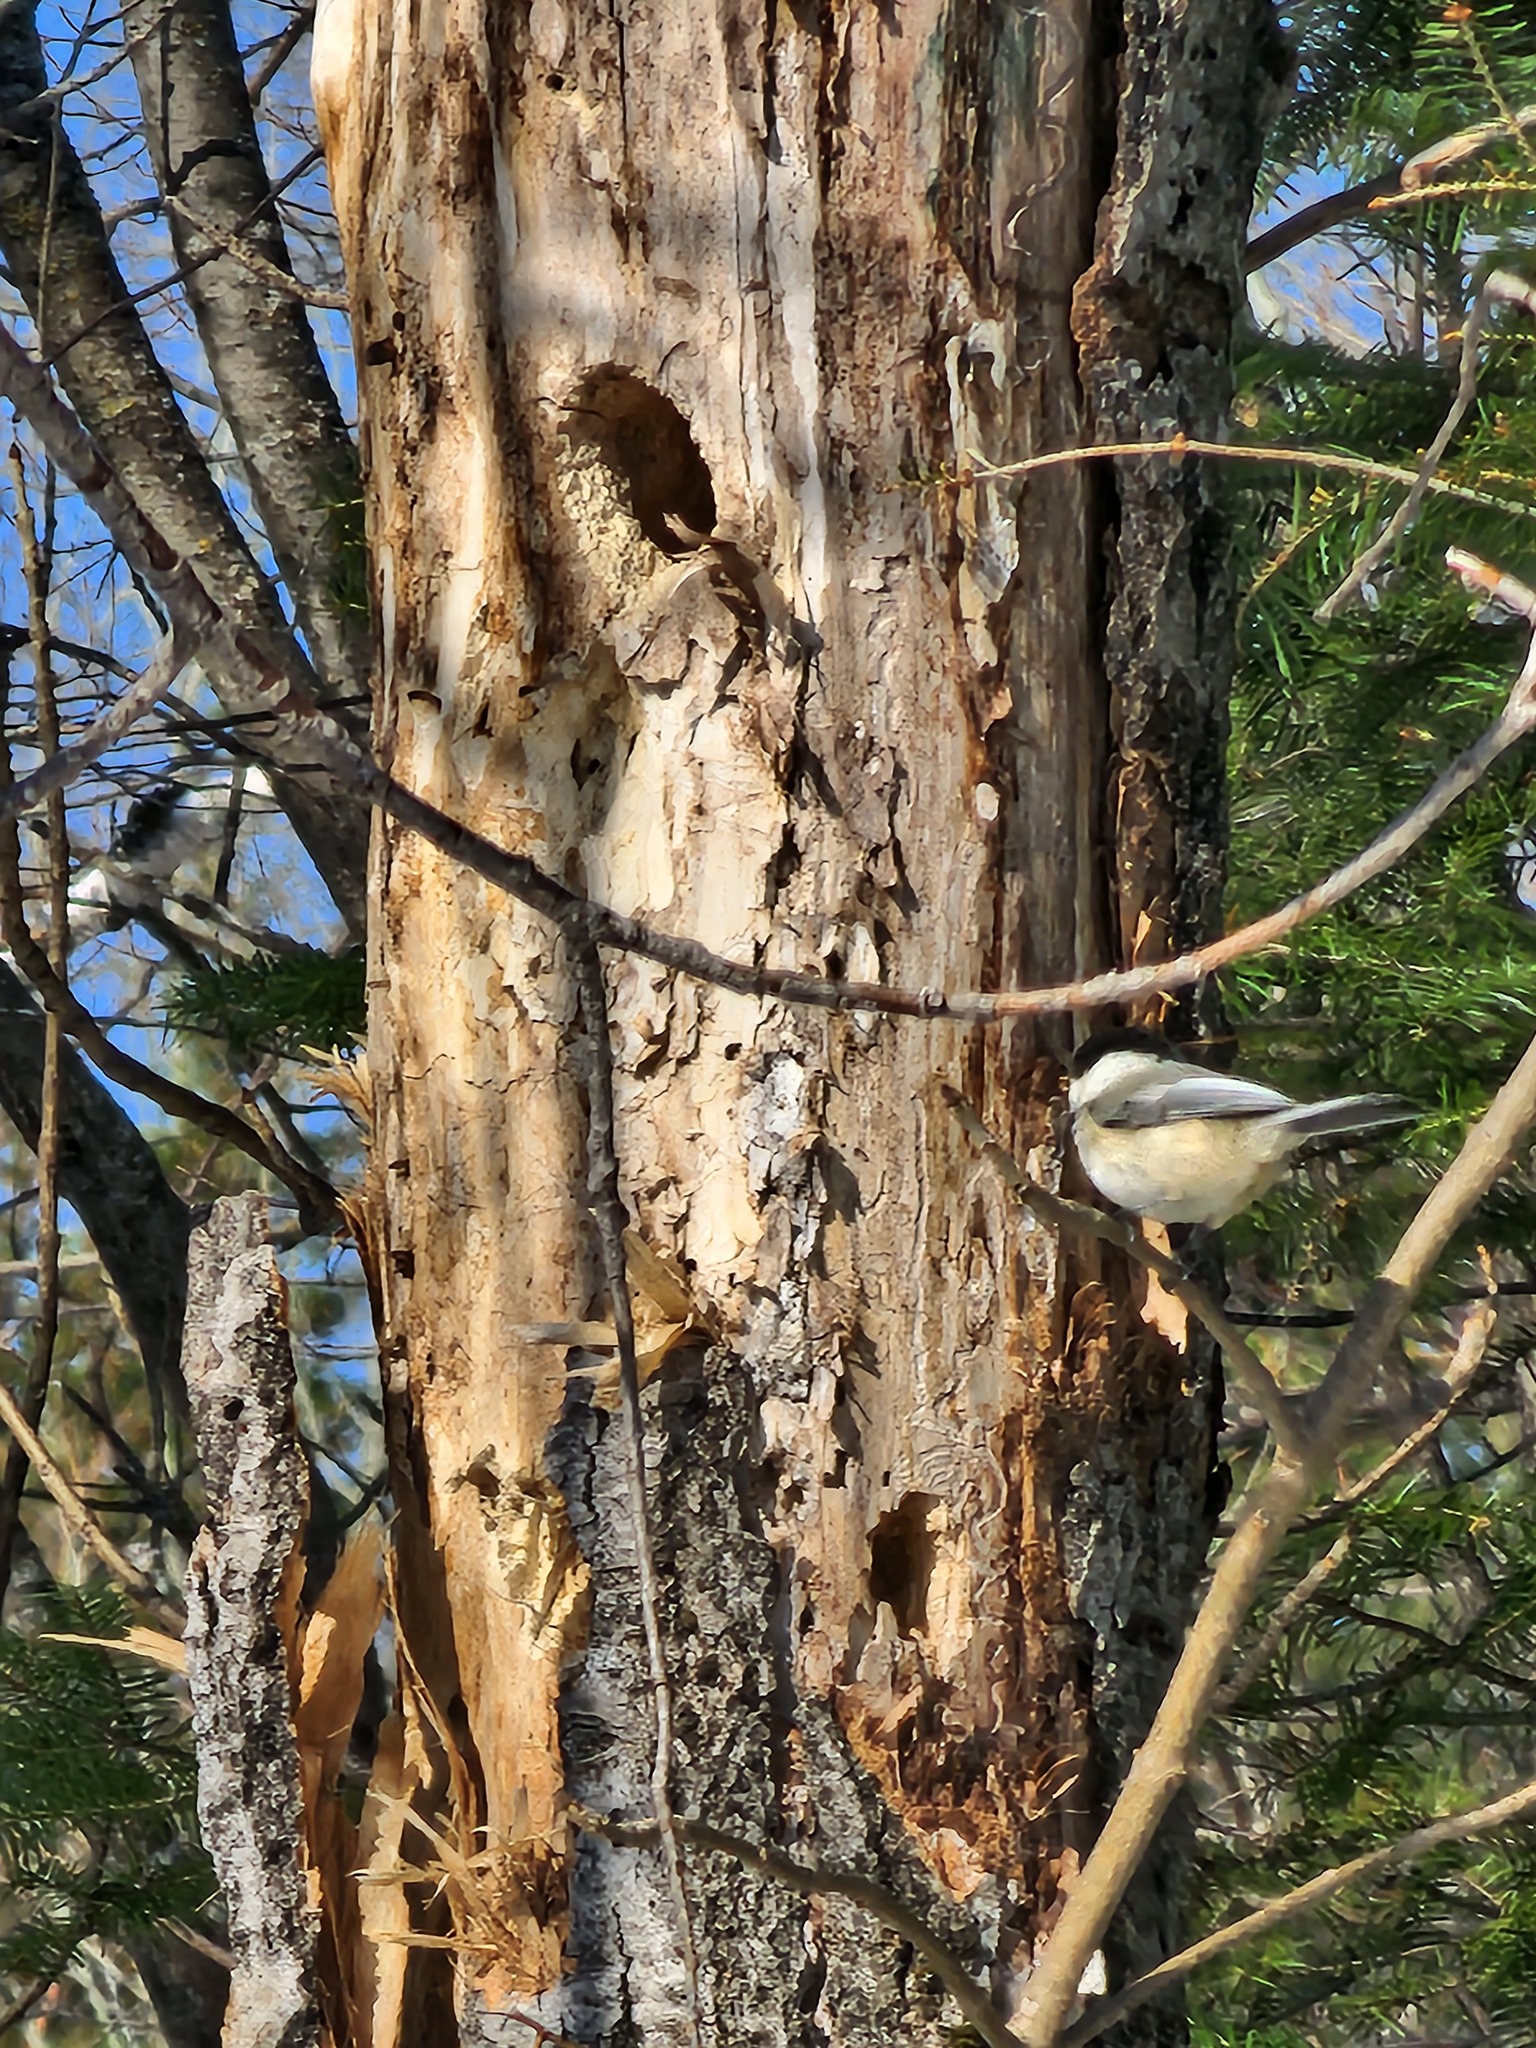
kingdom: Animalia
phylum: Chordata
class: Aves
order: Passeriformes
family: Paridae
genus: Poecile
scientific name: Poecile atricapillus
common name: Black-capped chickadee
